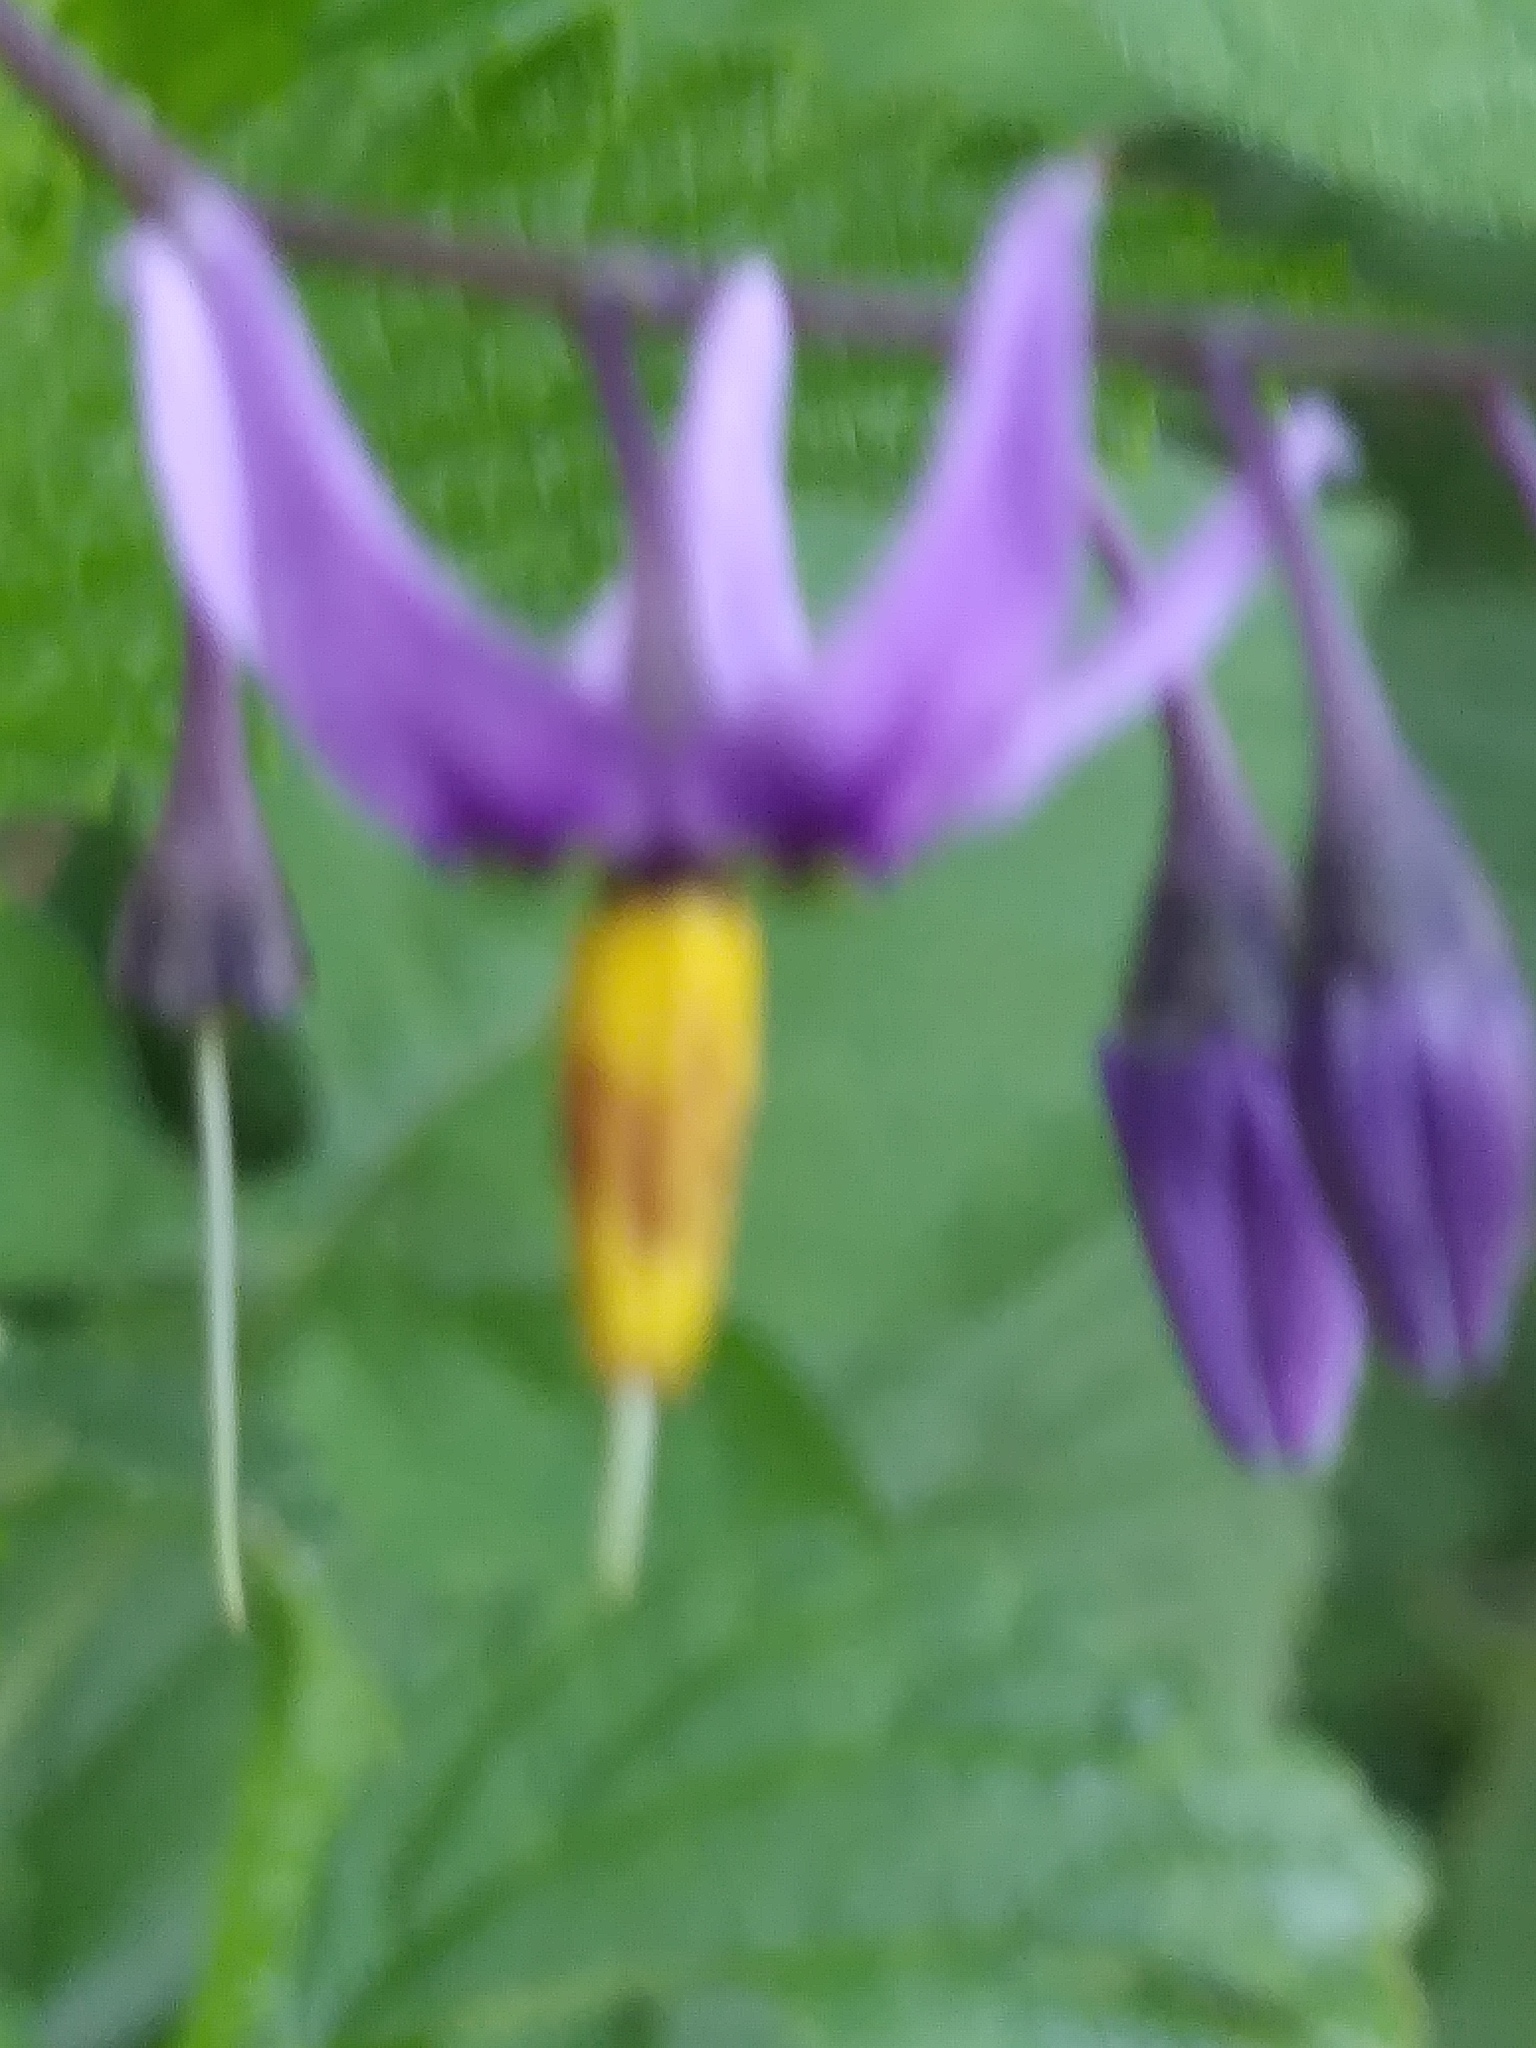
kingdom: Plantae
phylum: Tracheophyta
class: Magnoliopsida
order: Solanales
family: Solanaceae
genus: Solanum
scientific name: Solanum dulcamara
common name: Climbing nightshade
